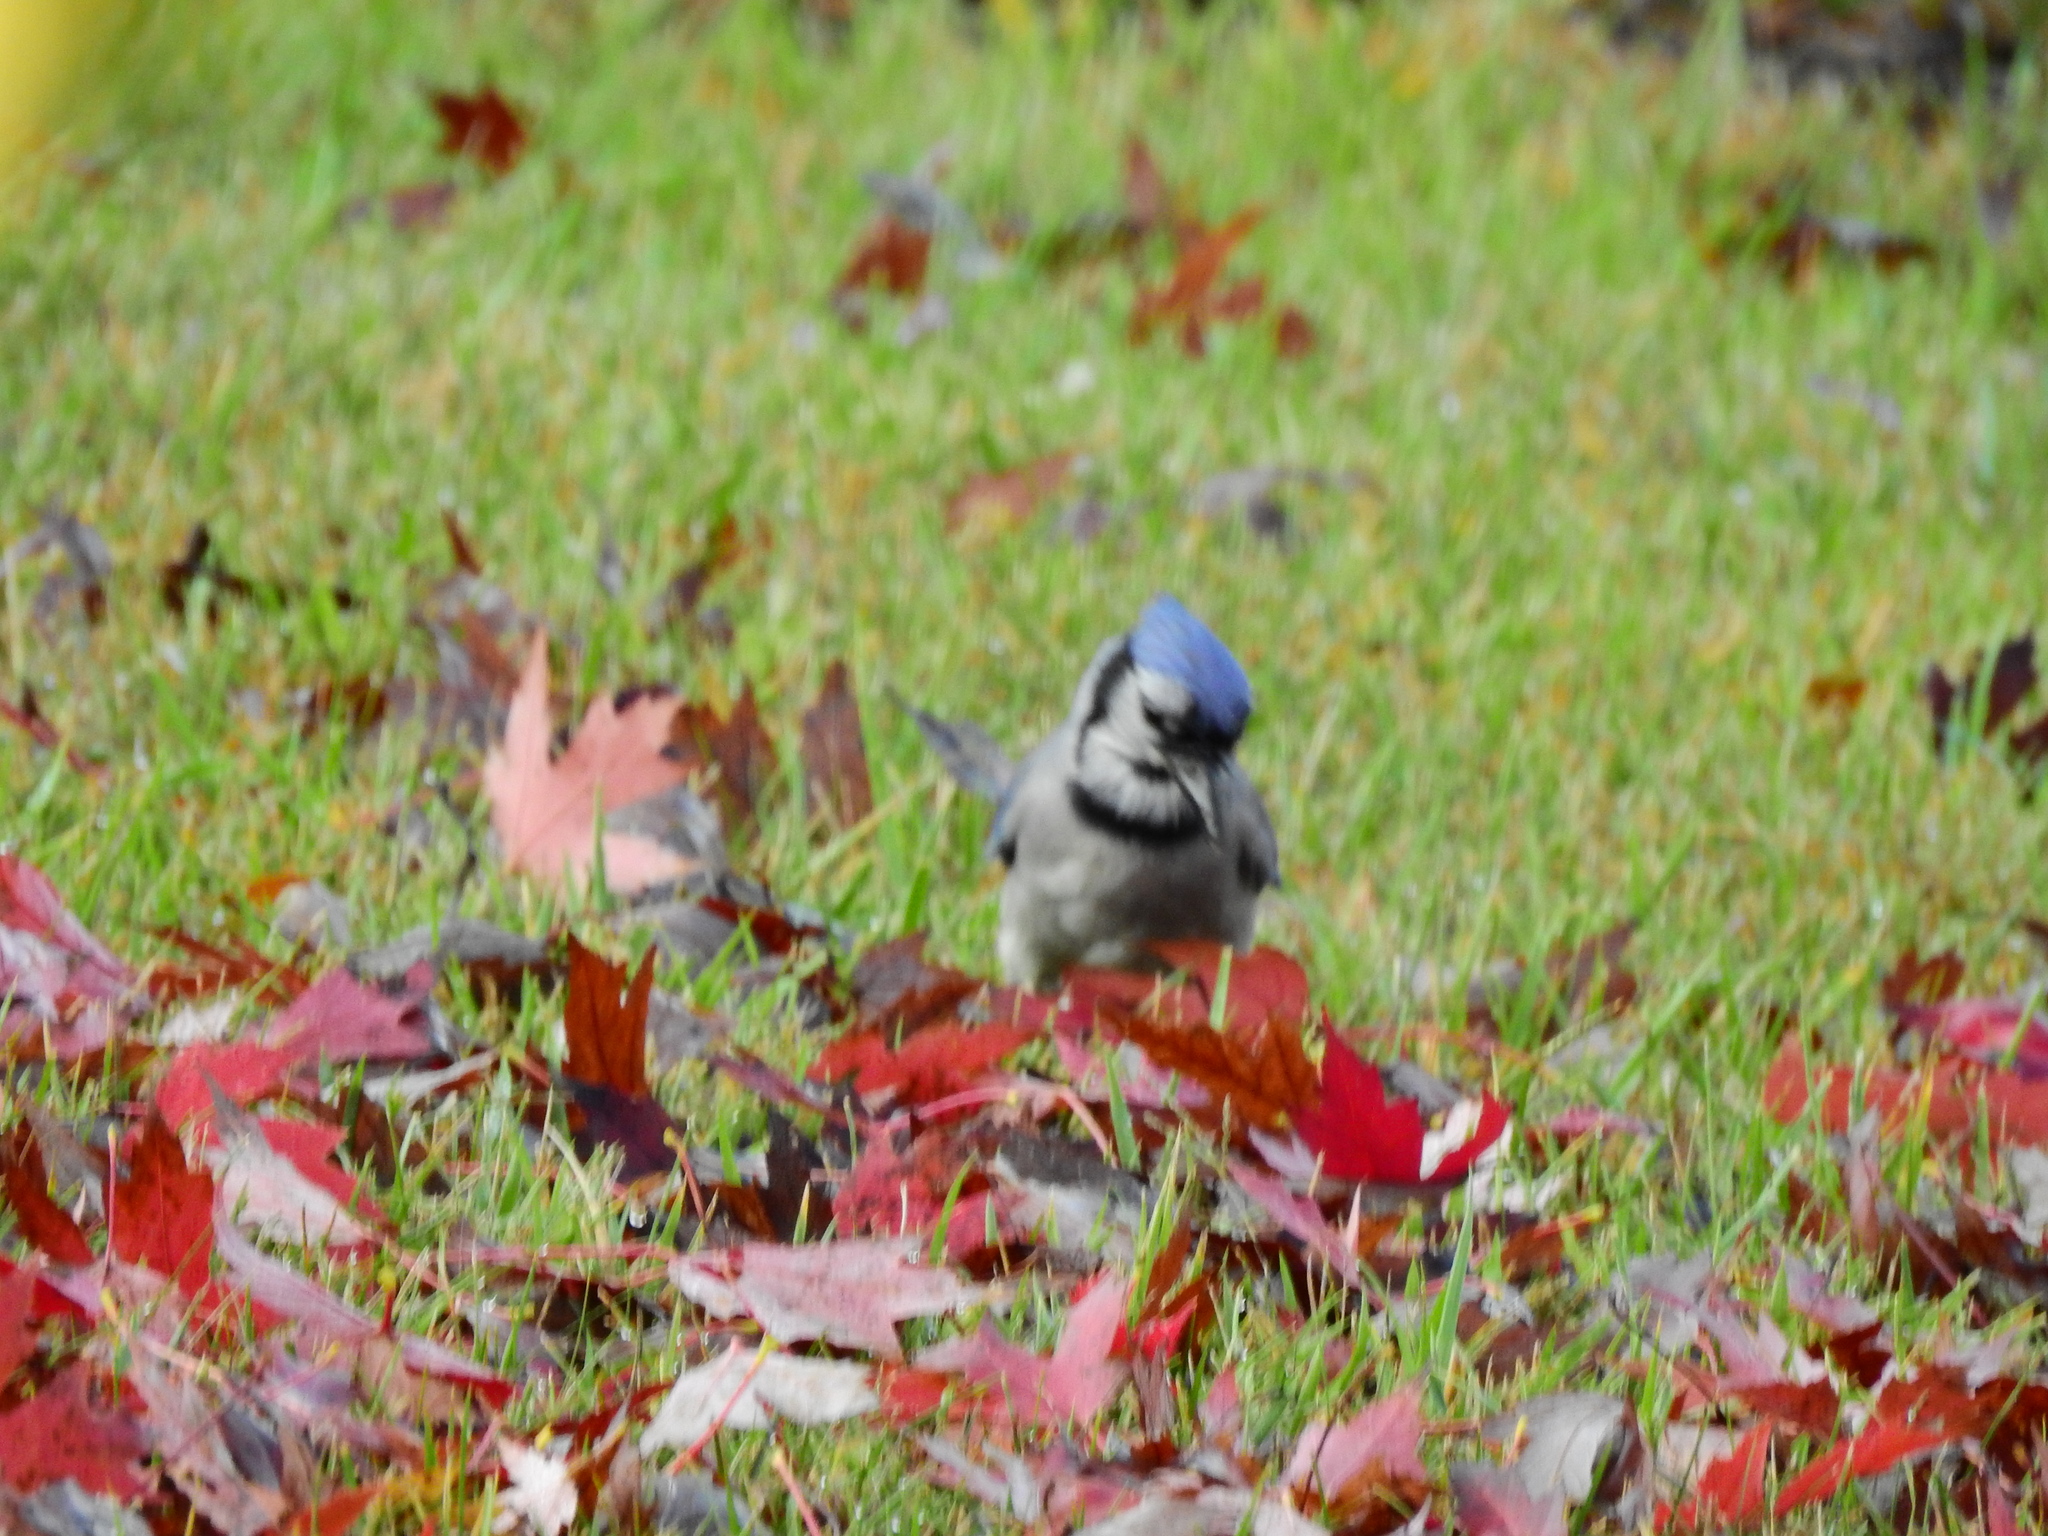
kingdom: Animalia
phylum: Chordata
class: Aves
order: Passeriformes
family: Corvidae
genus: Cyanocitta
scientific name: Cyanocitta cristata
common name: Blue jay
